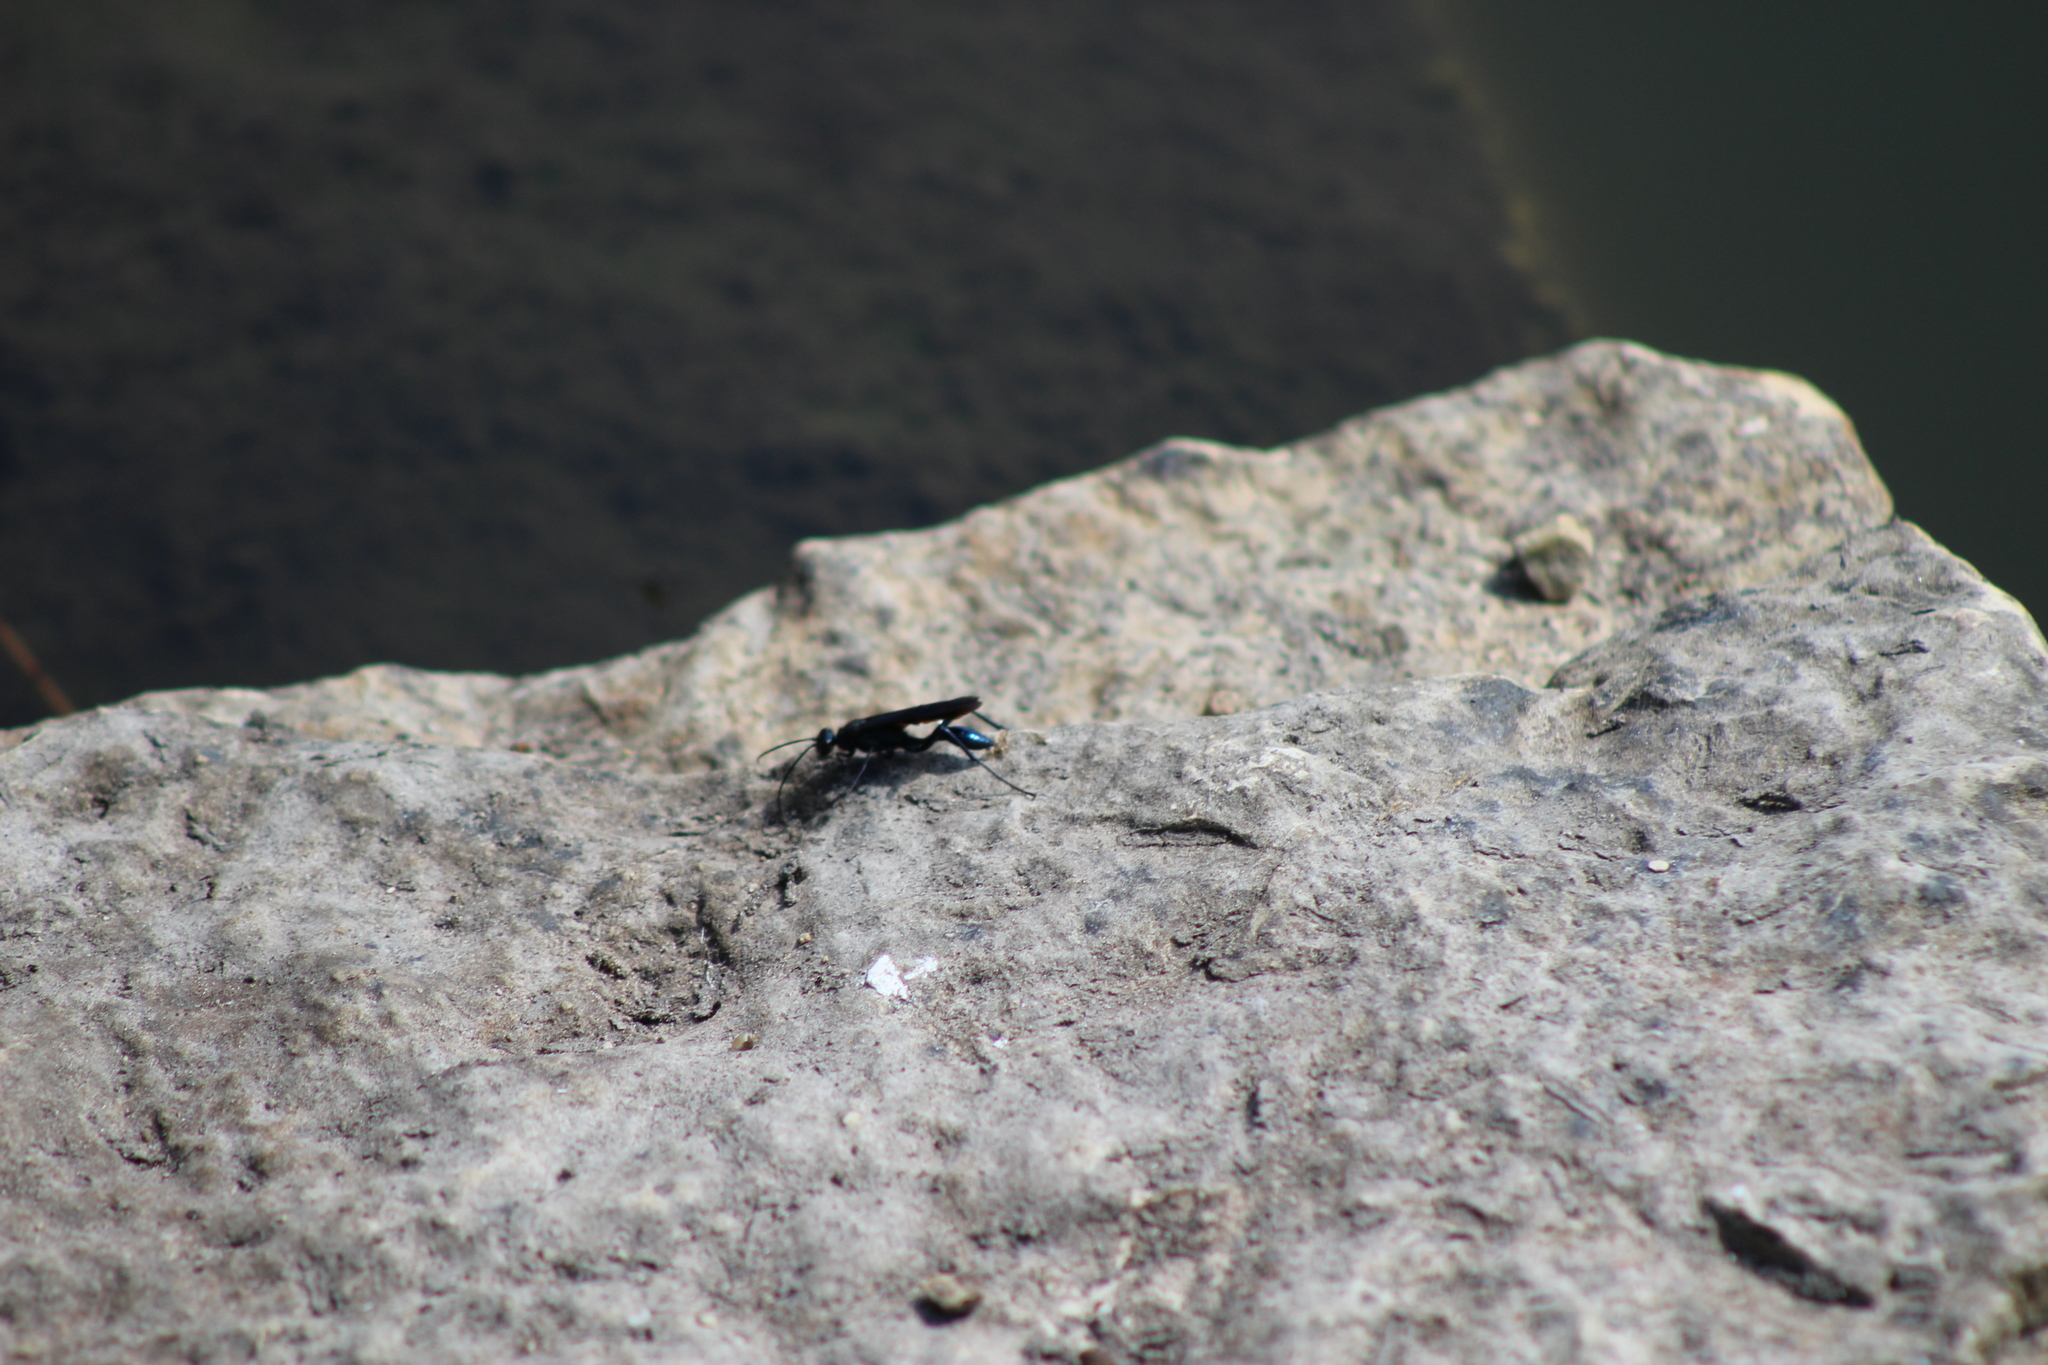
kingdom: Animalia
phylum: Arthropoda
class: Insecta
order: Hymenoptera
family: Sphecidae
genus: Chalybion
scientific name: Chalybion californicum
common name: Mud dauber
